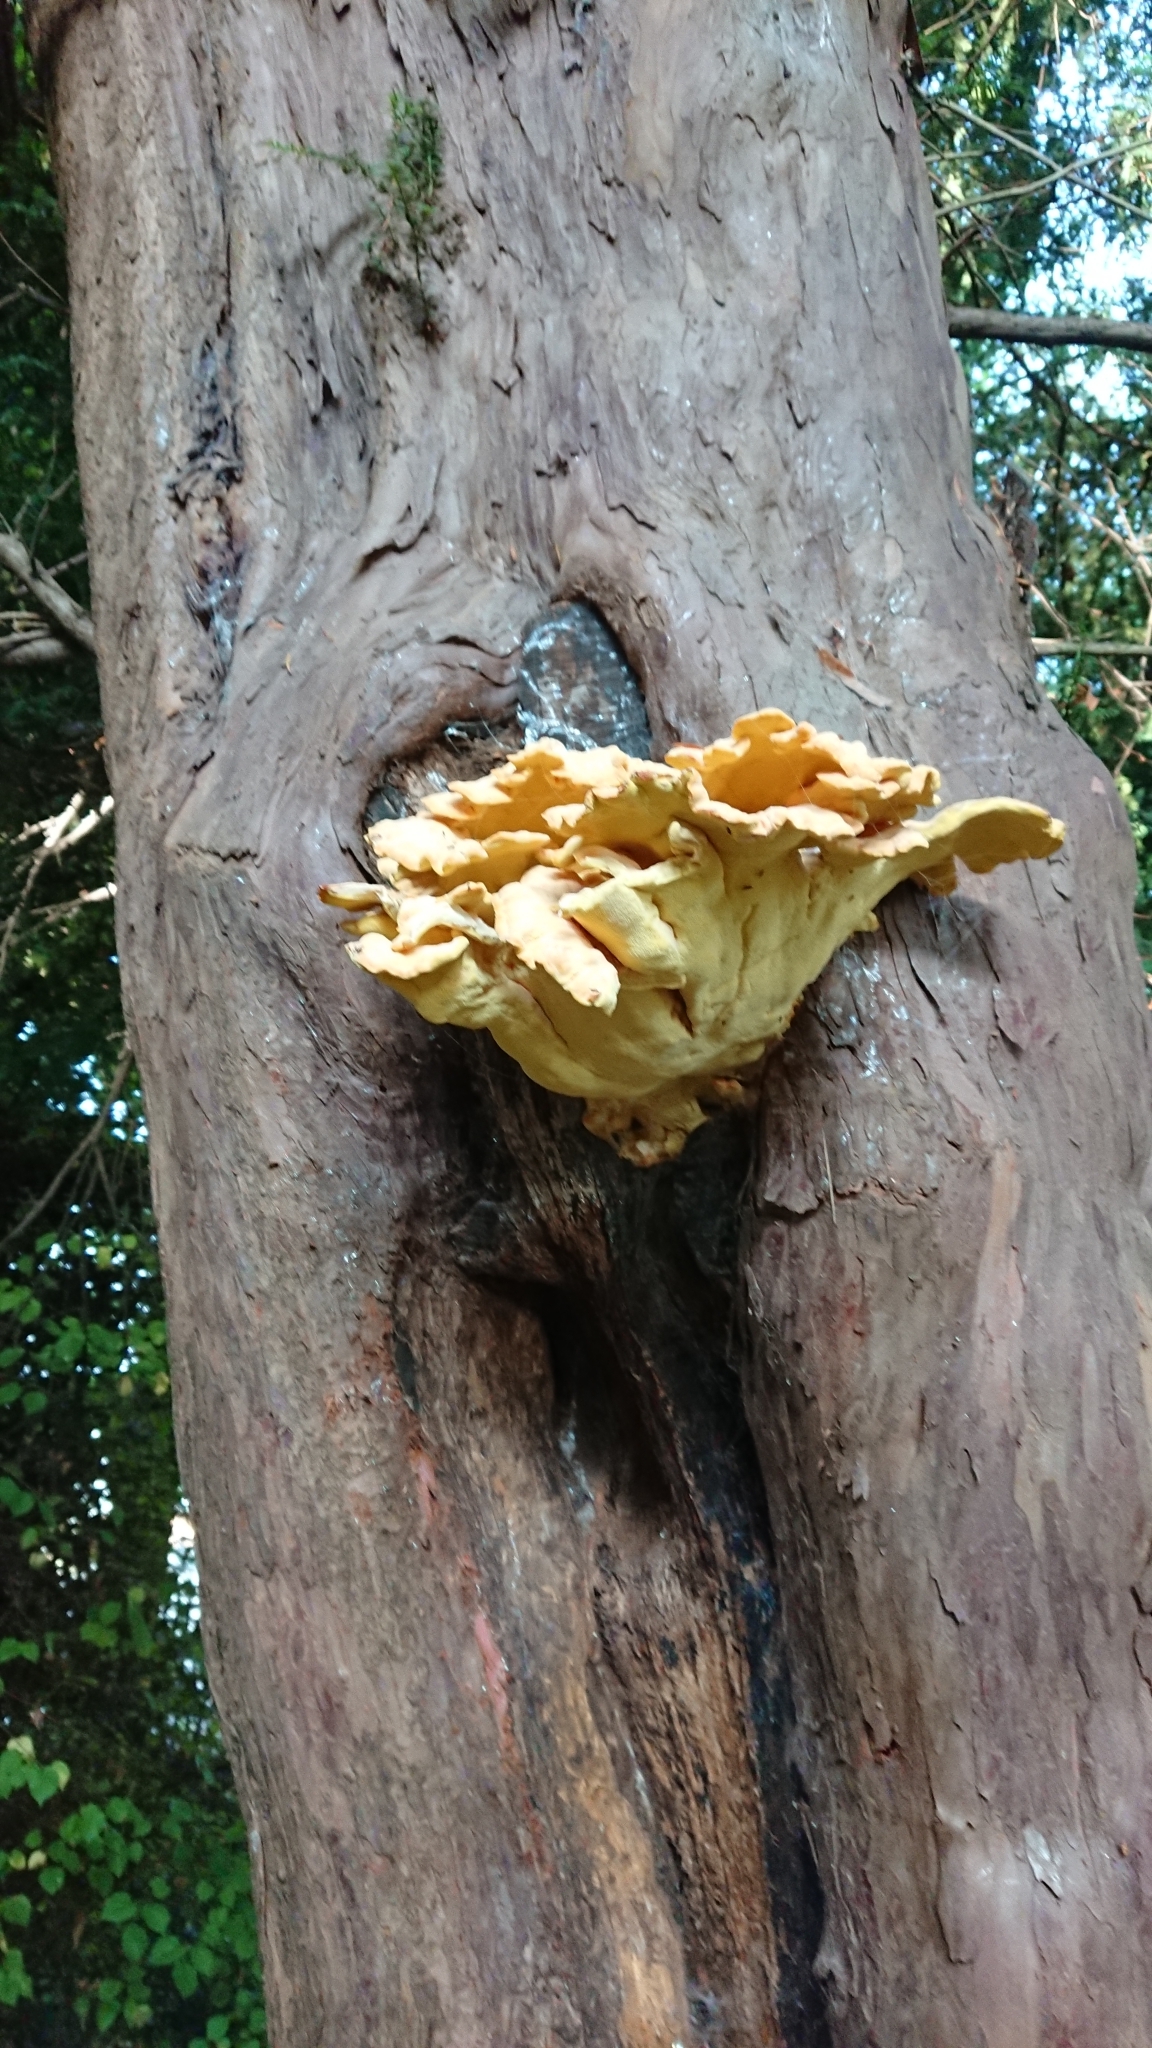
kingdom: Fungi
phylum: Basidiomycota
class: Agaricomycetes
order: Polyporales
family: Laetiporaceae
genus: Laetiporus
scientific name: Laetiporus sulphureus
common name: Chicken of the woods
